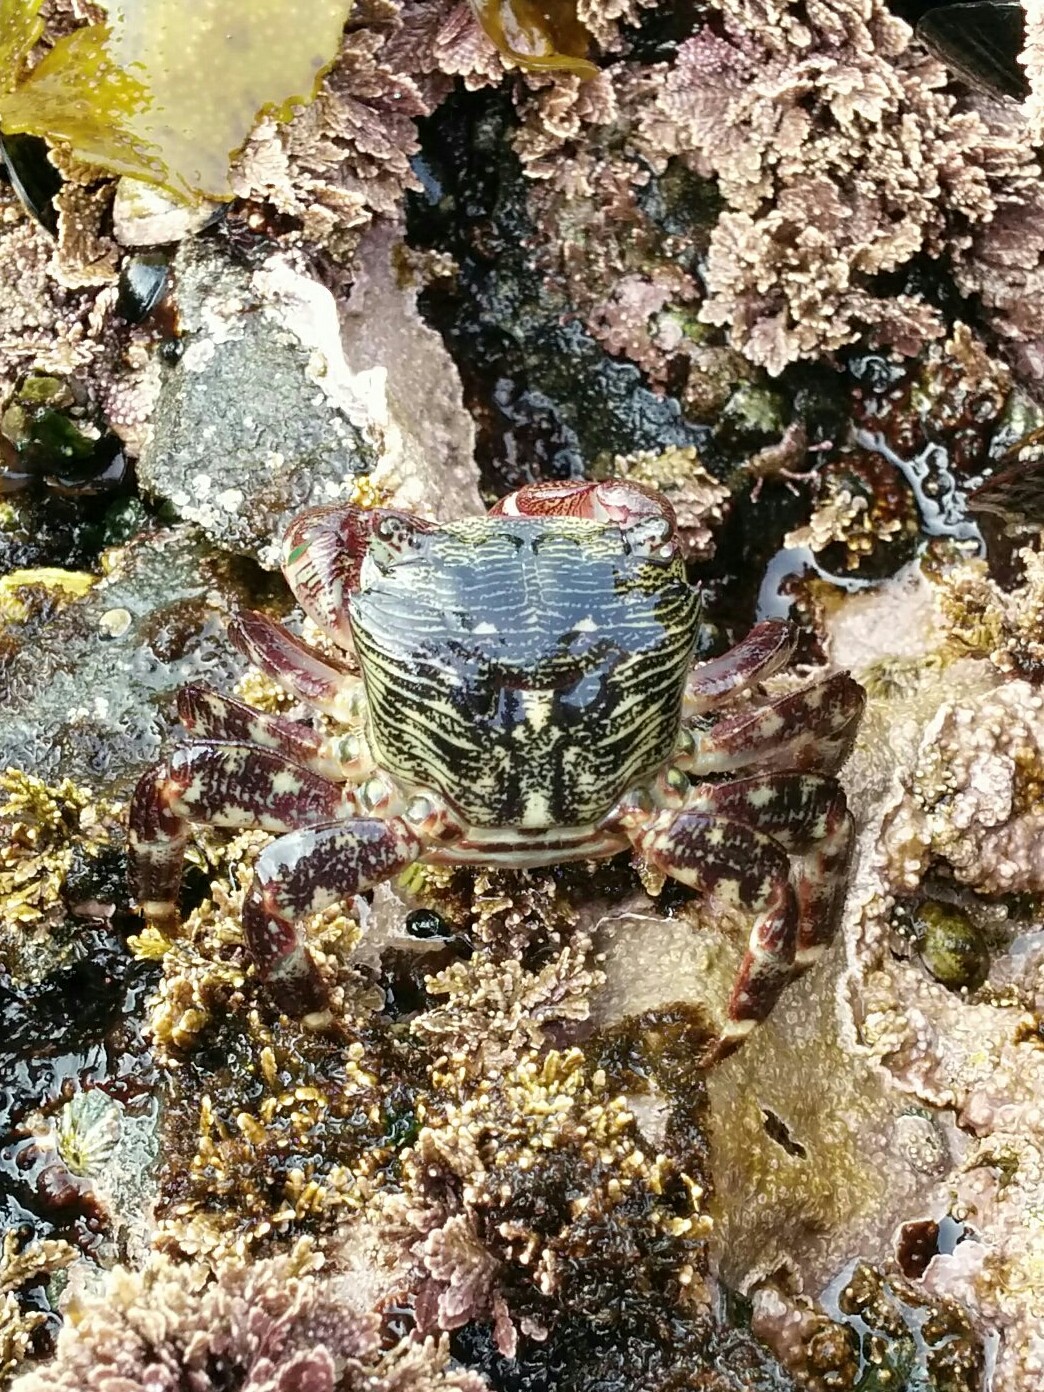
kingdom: Animalia
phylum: Arthropoda
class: Malacostraca
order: Decapoda
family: Grapsidae
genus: Pachygrapsus
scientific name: Pachygrapsus crassipes
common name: Striped shore crab
